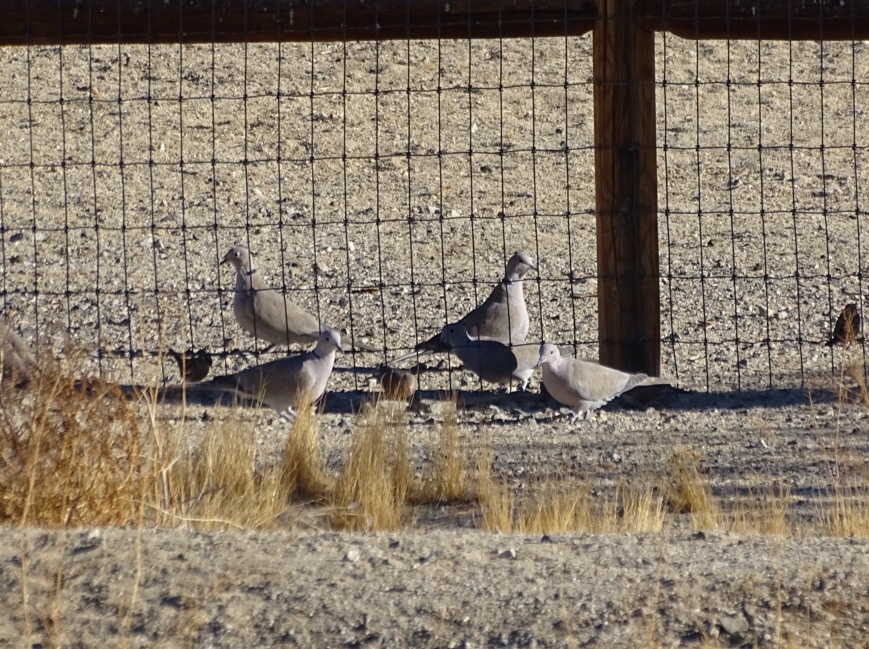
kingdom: Animalia
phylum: Chordata
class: Aves
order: Columbiformes
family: Columbidae
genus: Streptopelia
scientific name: Streptopelia decaocto
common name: Eurasian collared dove
